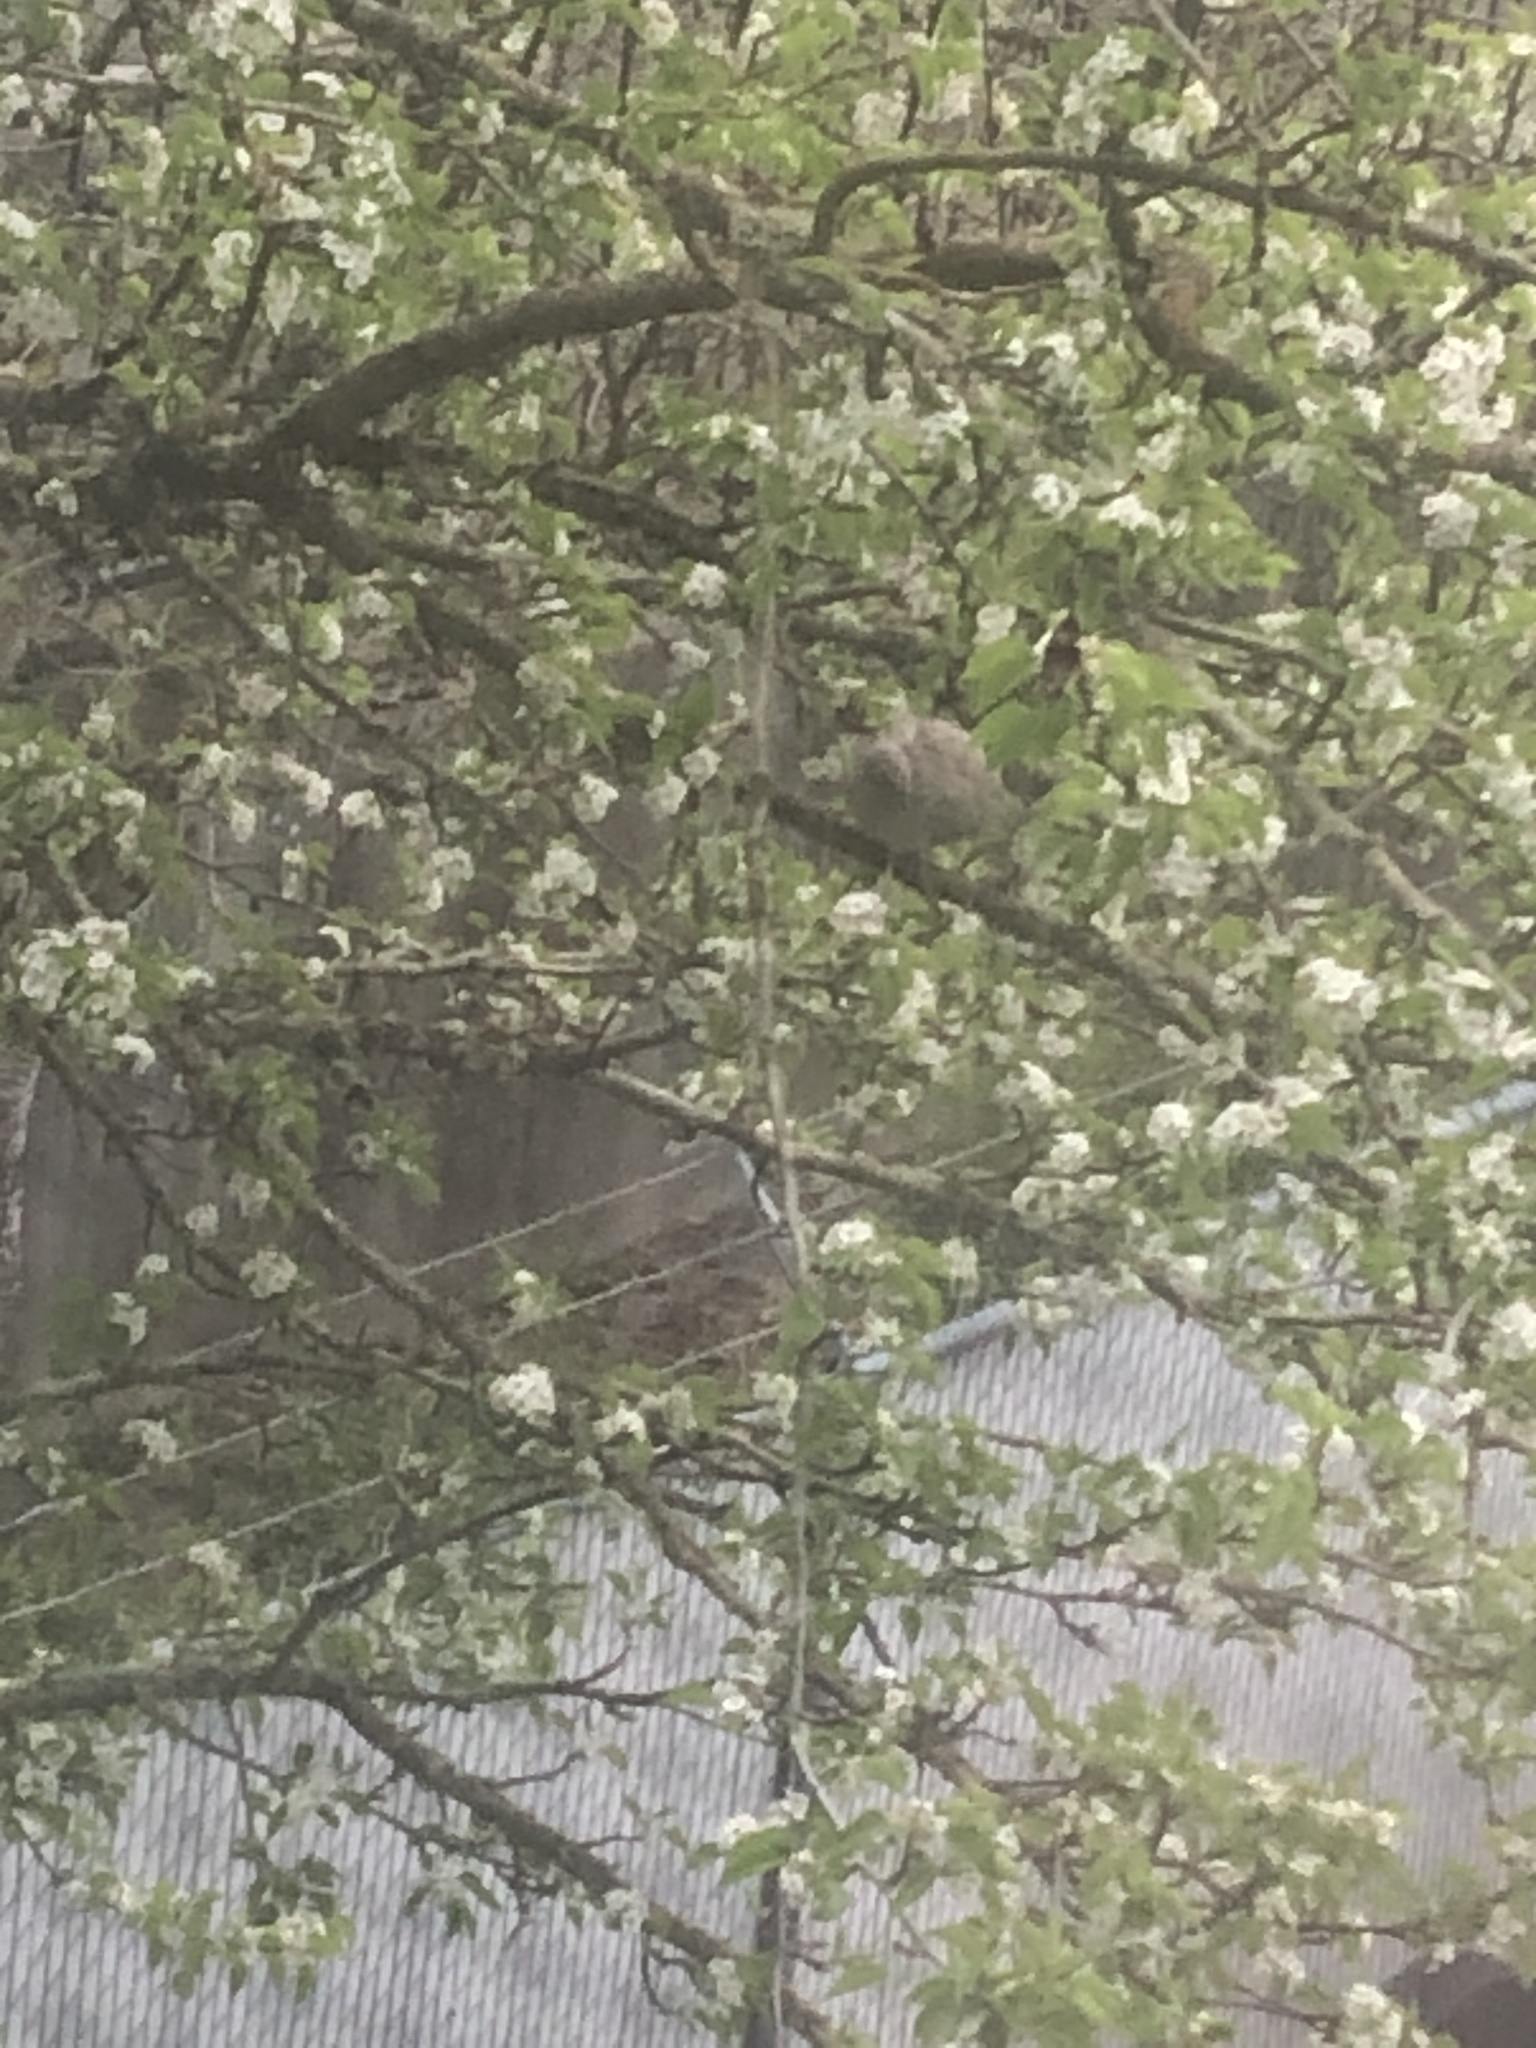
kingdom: Animalia
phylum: Chordata
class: Aves
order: Columbiformes
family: Columbidae
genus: Zenaida
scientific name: Zenaida macroura
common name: Mourning dove
